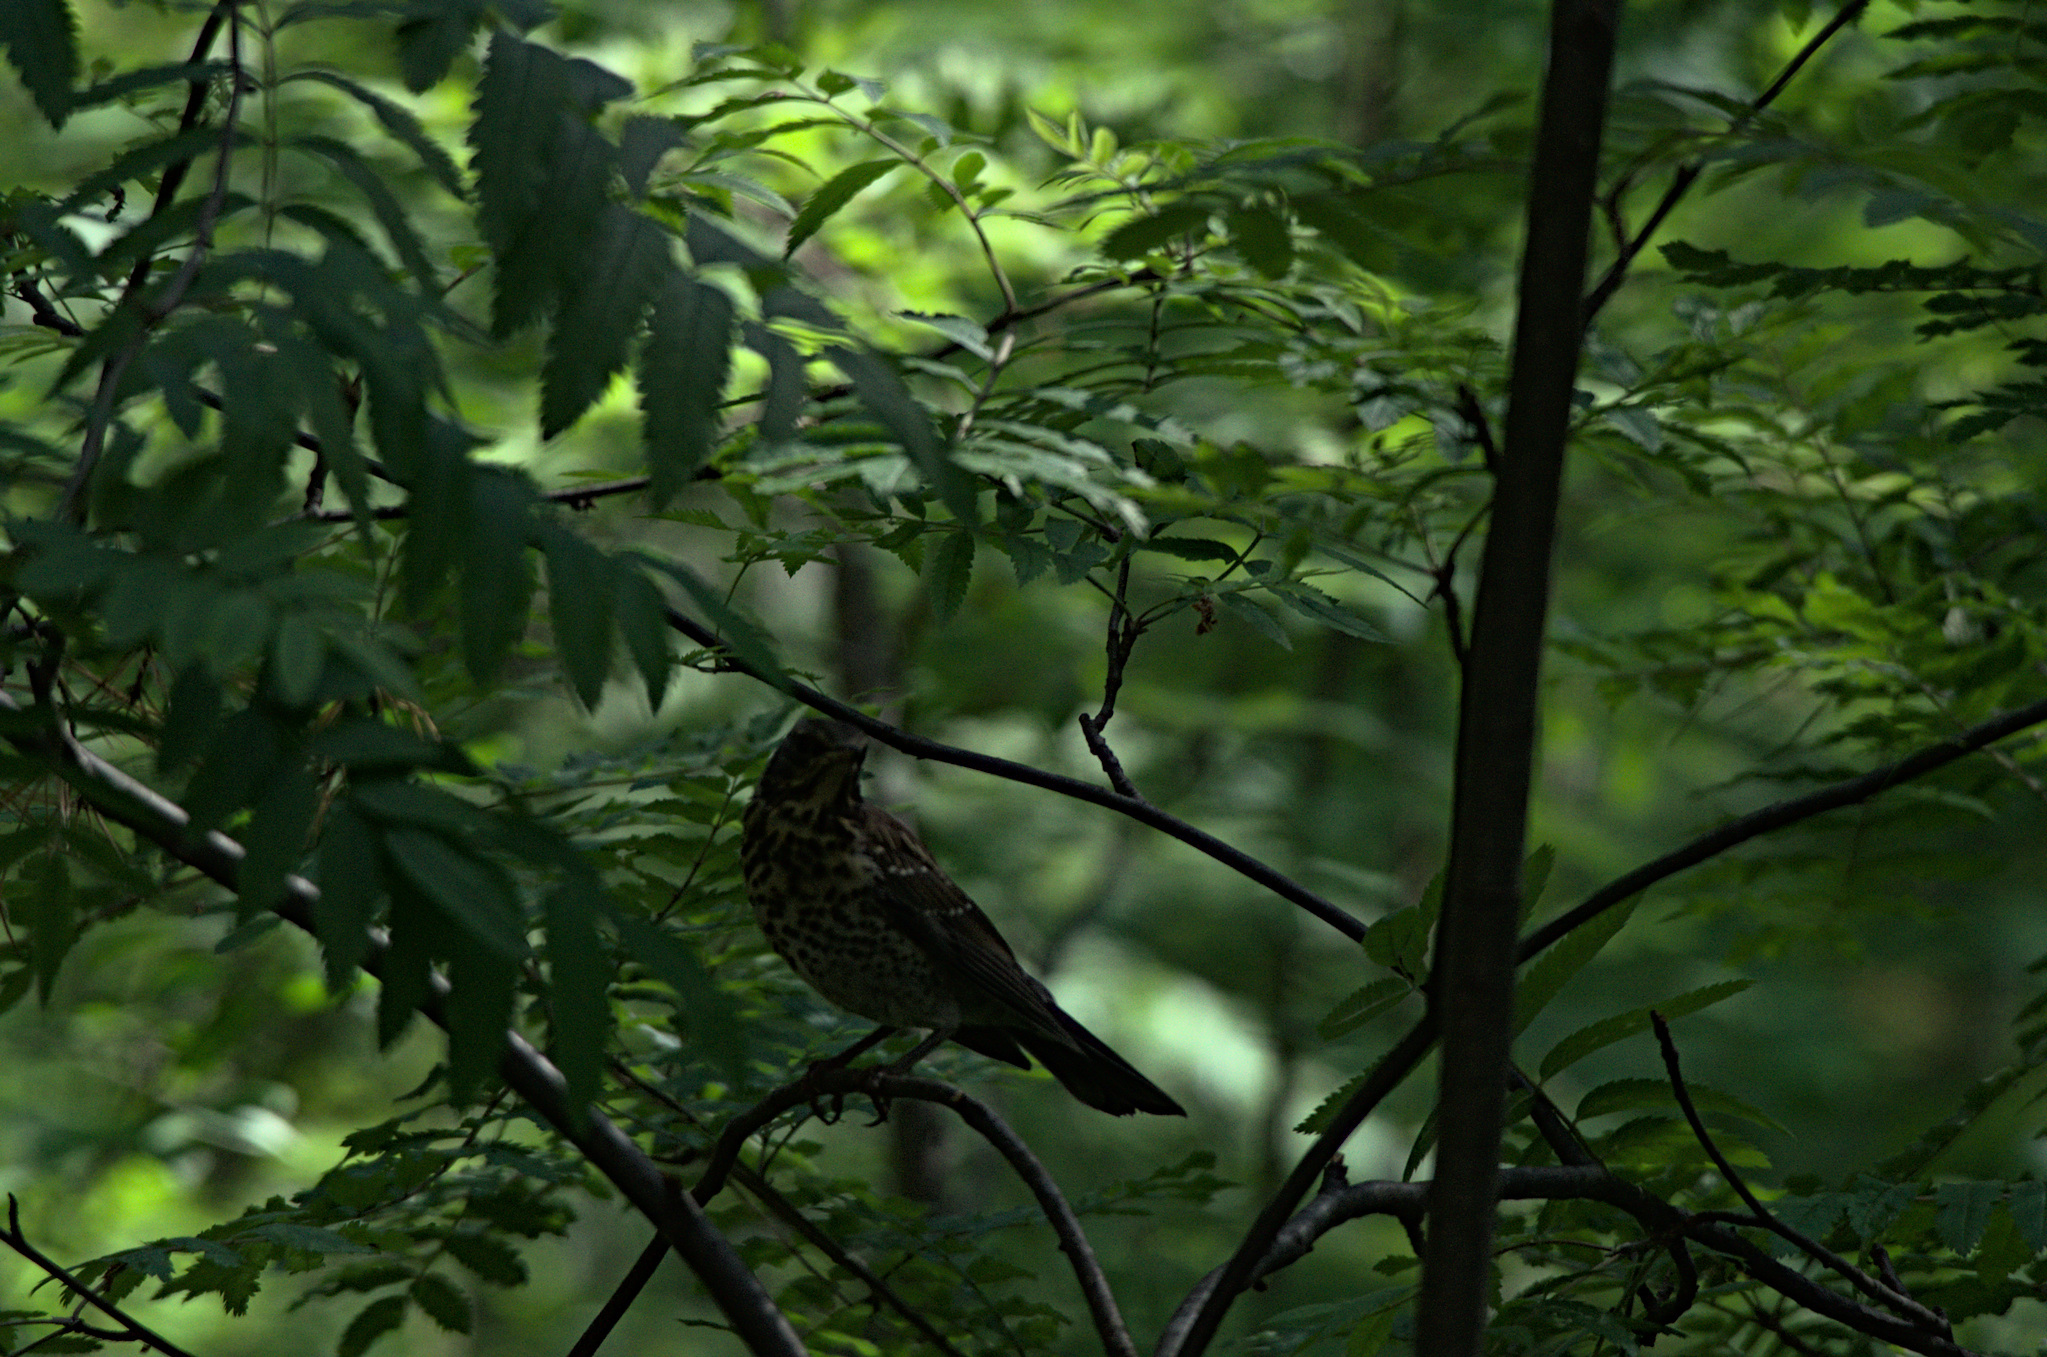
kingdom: Animalia
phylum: Chordata
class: Aves
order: Passeriformes
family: Turdidae
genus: Turdus
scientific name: Turdus pilaris
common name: Fieldfare
